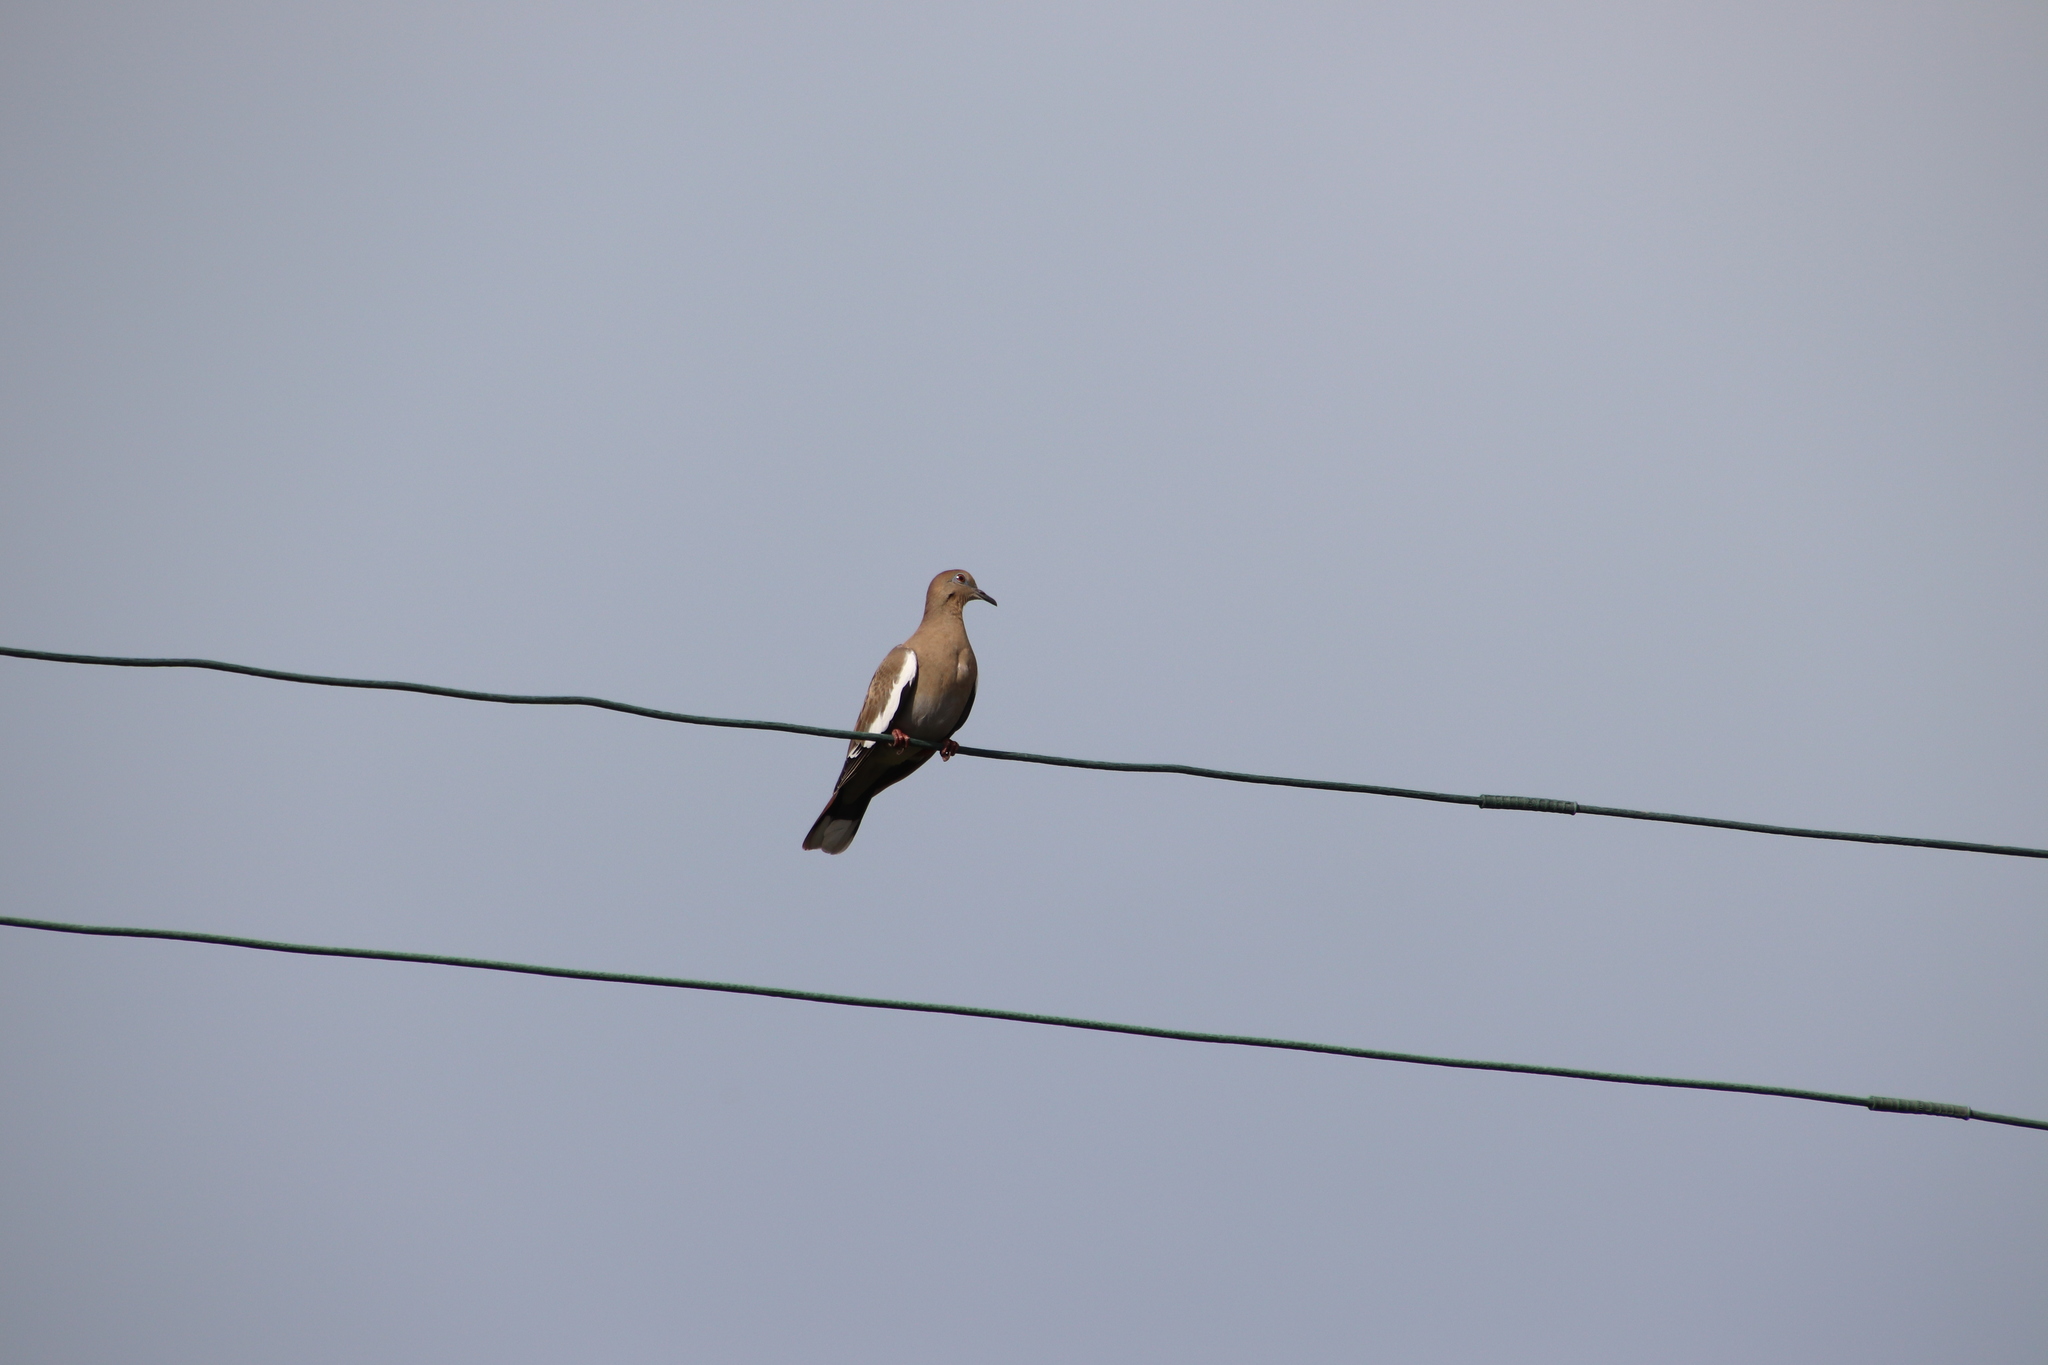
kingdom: Animalia
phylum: Chordata
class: Aves
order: Columbiformes
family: Columbidae
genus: Zenaida
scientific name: Zenaida asiatica
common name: White-winged dove
